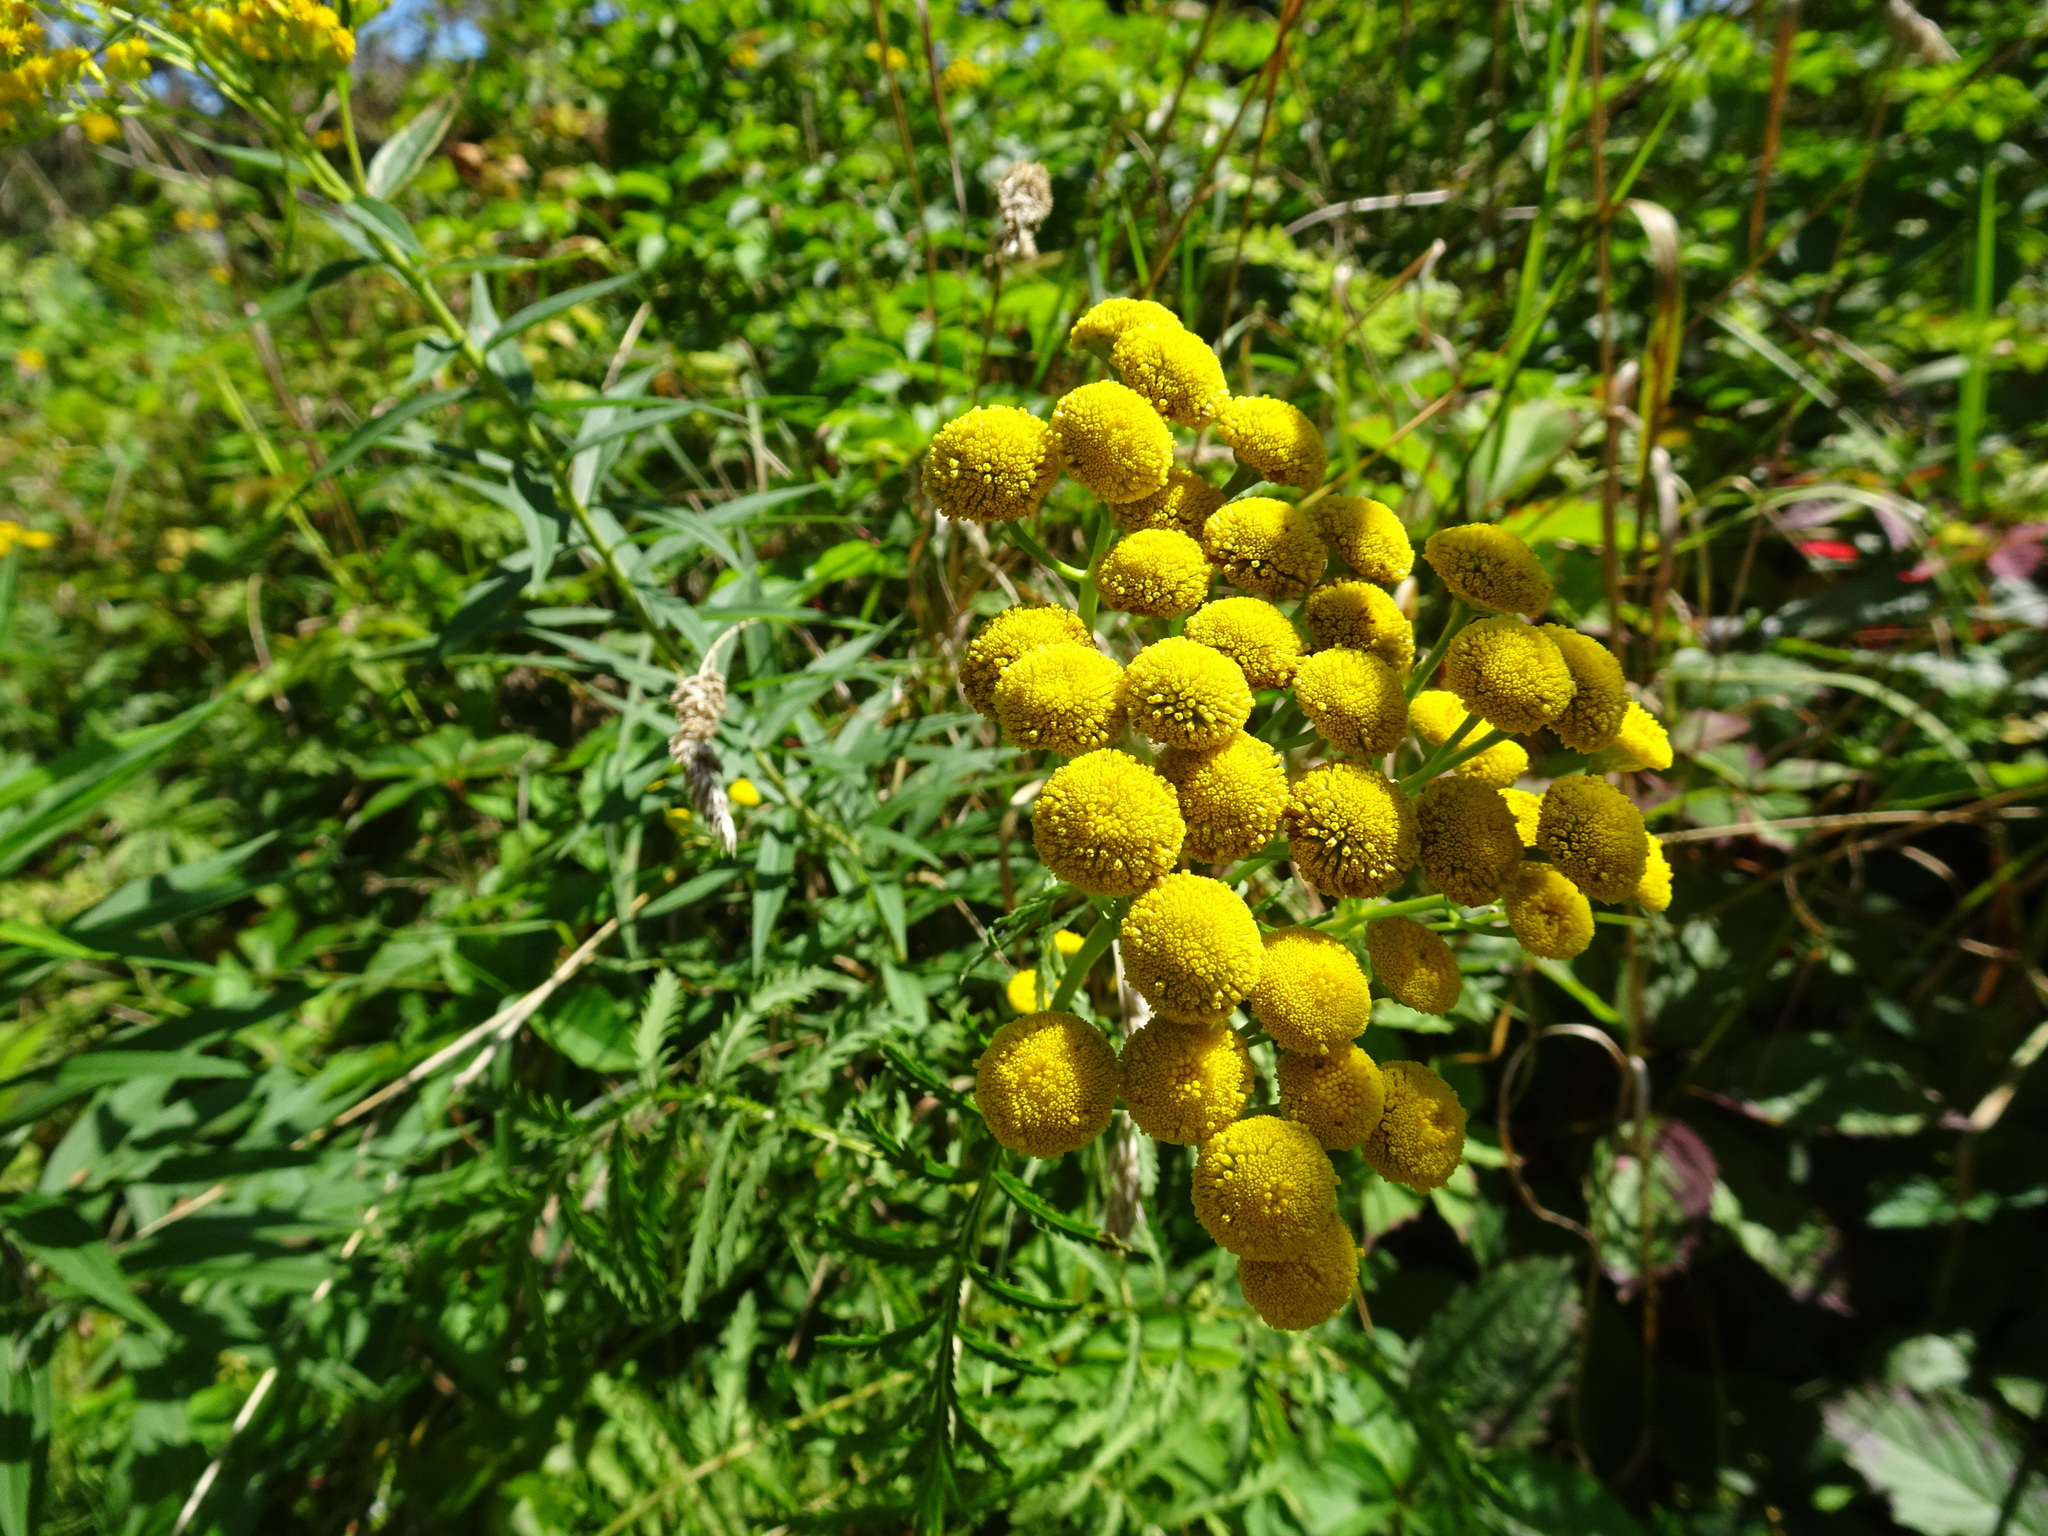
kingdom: Plantae
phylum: Tracheophyta
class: Magnoliopsida
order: Asterales
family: Asteraceae
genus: Tanacetum
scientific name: Tanacetum vulgare
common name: Common tansy
